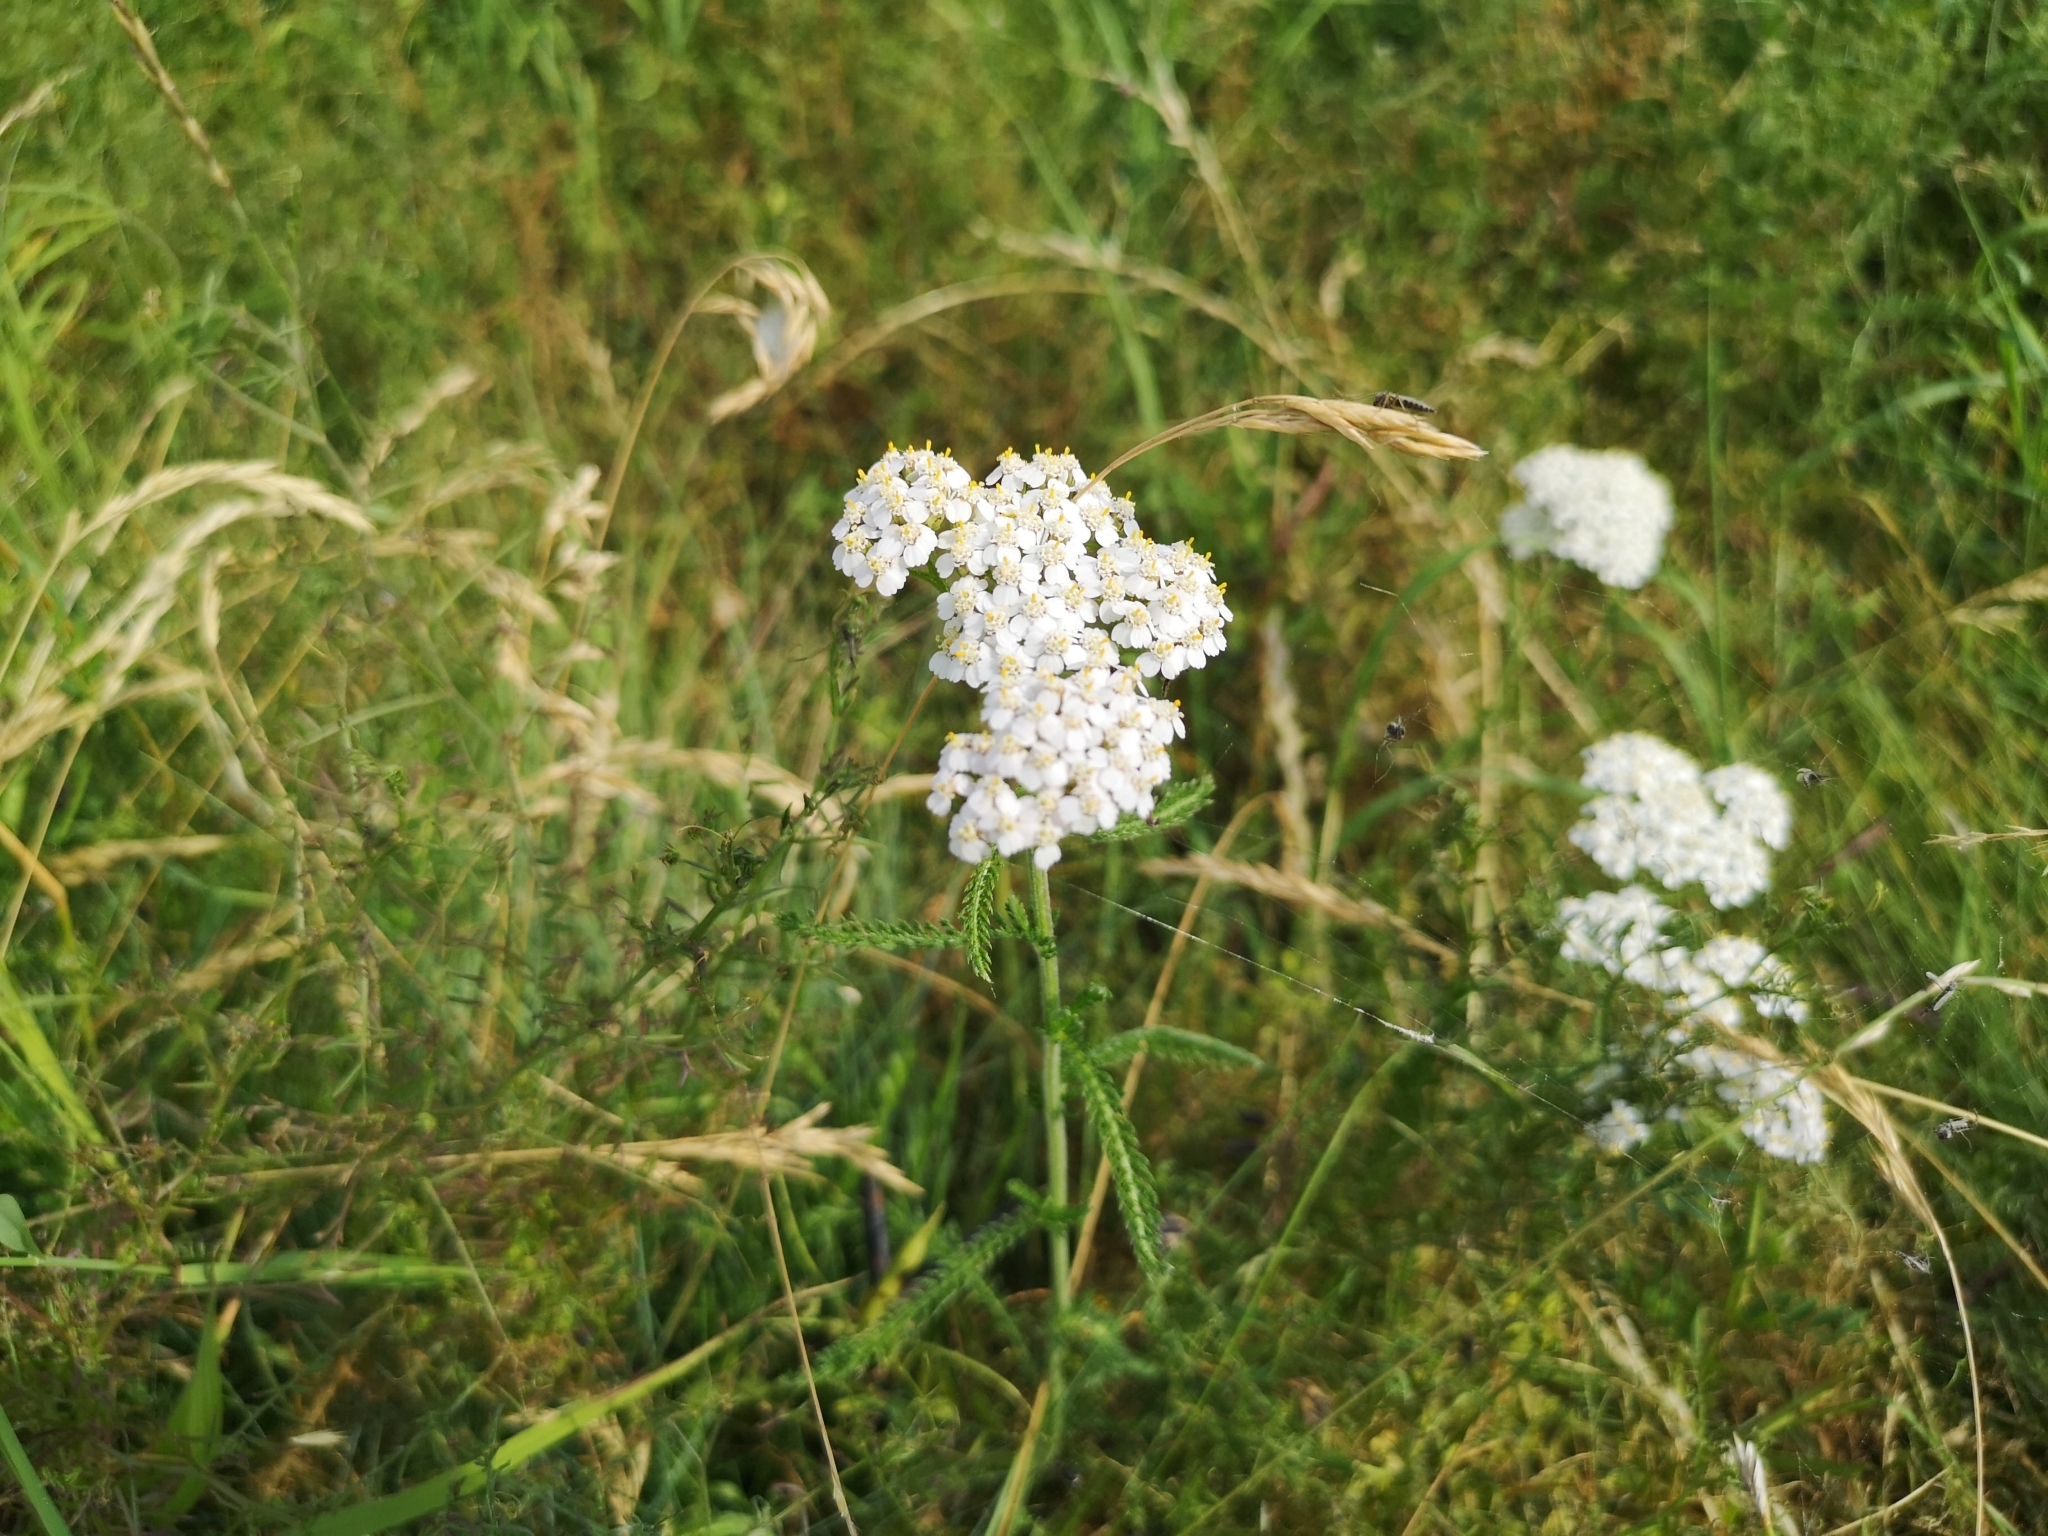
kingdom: Plantae
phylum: Tracheophyta
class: Magnoliopsida
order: Asterales
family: Asteraceae
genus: Achillea
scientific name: Achillea millefolium
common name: Yarrow
